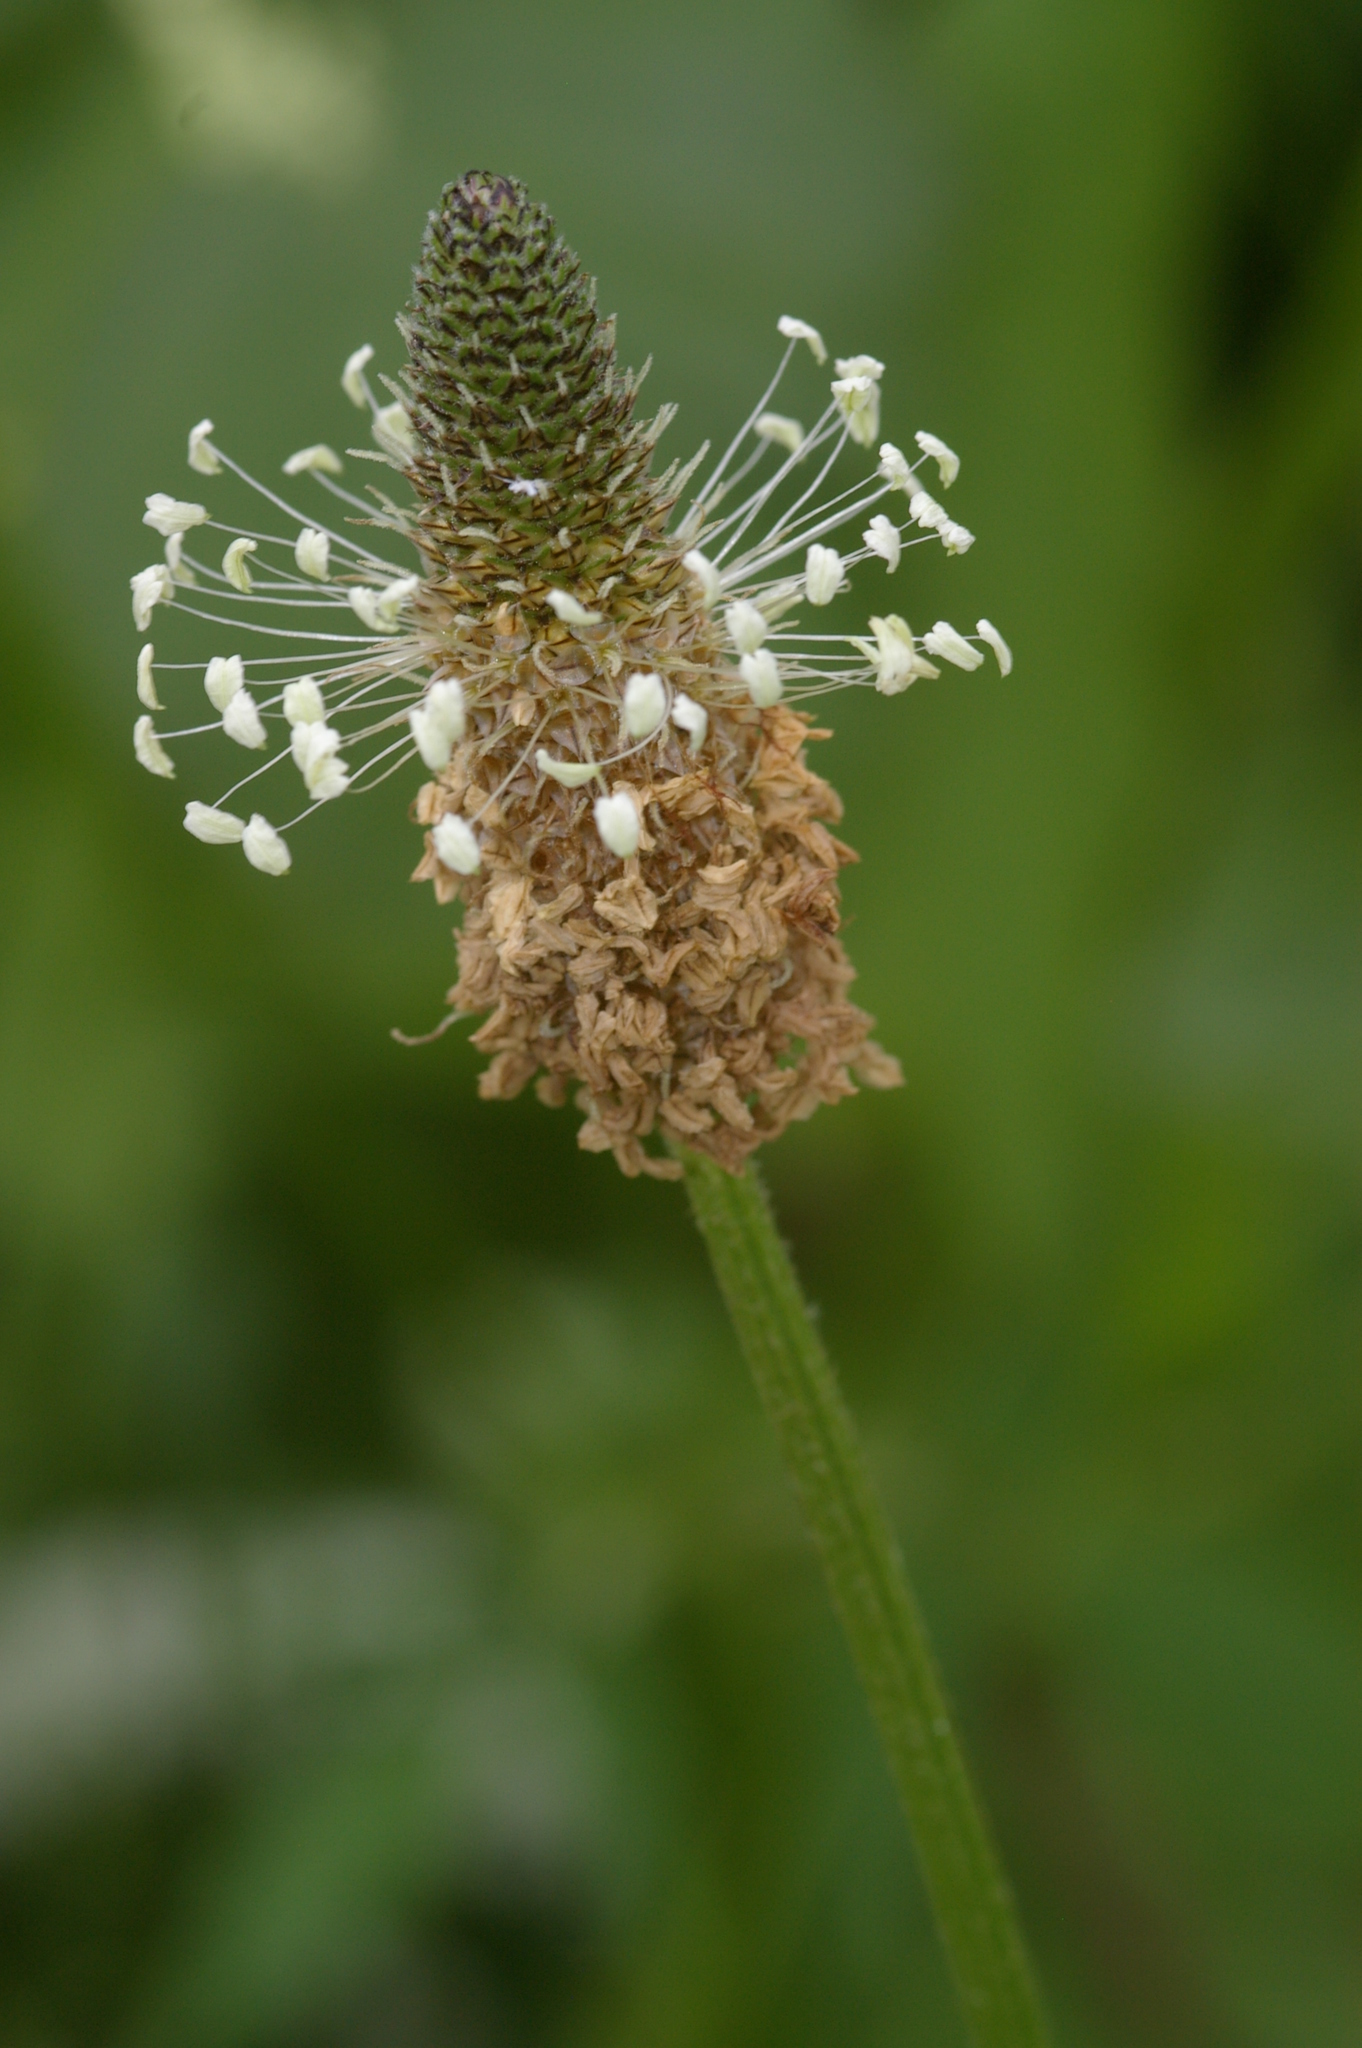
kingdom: Plantae
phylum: Tracheophyta
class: Magnoliopsida
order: Lamiales
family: Plantaginaceae
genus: Plantago
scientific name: Plantago lanceolata
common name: Ribwort plantain
